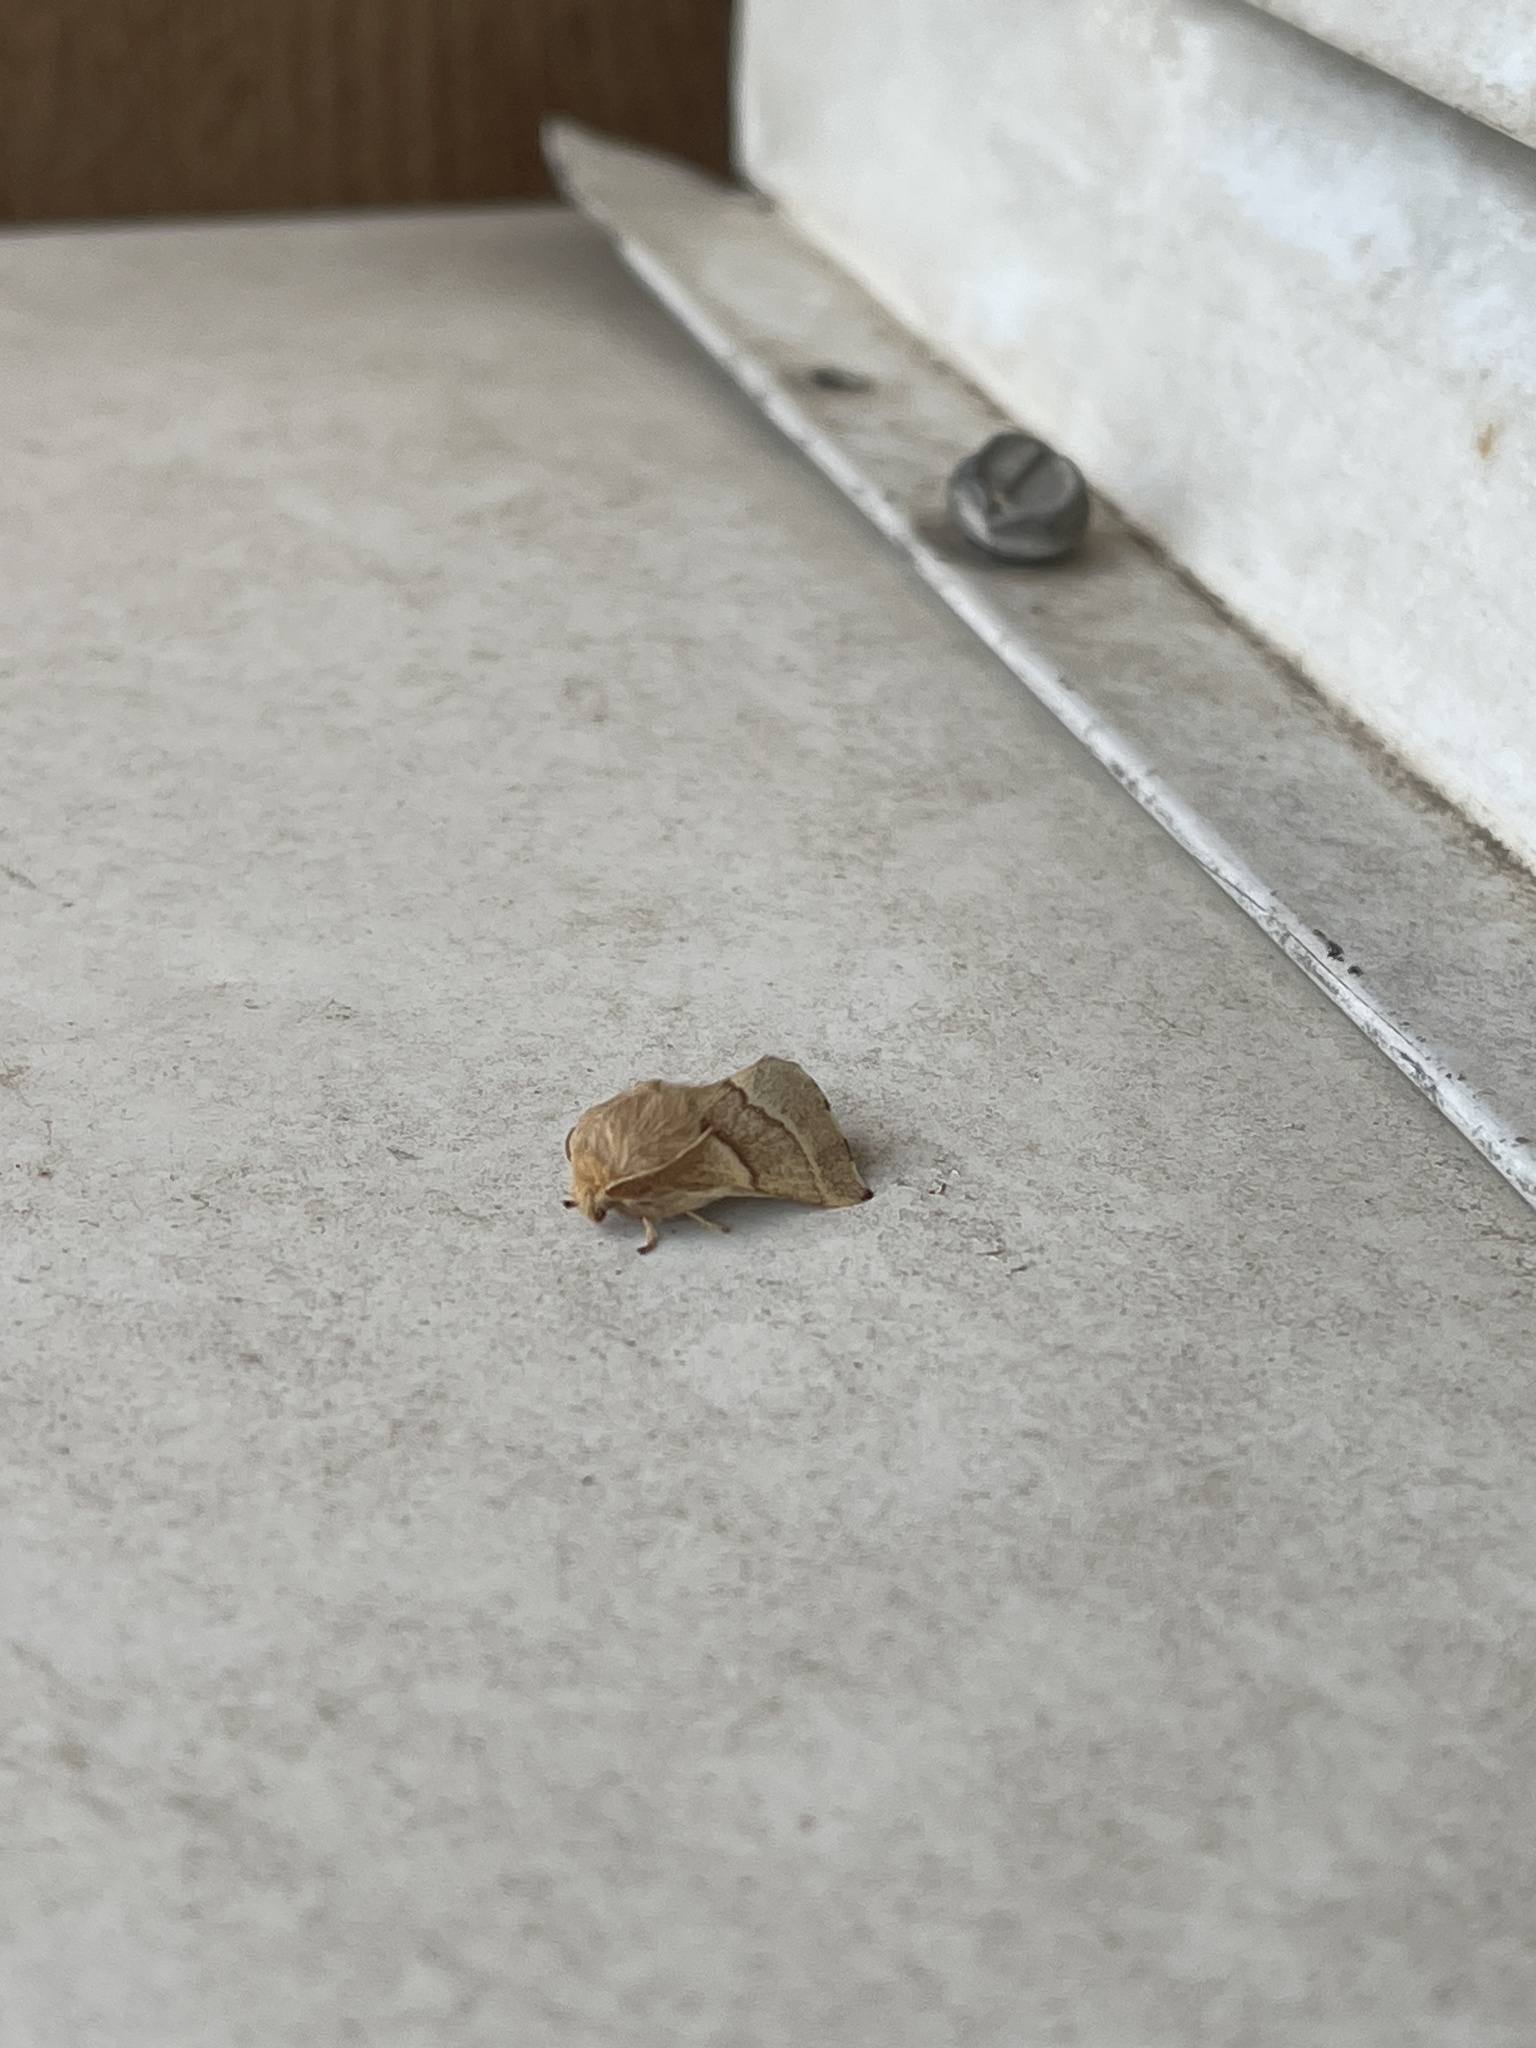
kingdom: Animalia
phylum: Arthropoda
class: Insecta
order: Lepidoptera
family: Lasiocampidae
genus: Malacosoma
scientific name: Malacosoma incurva
